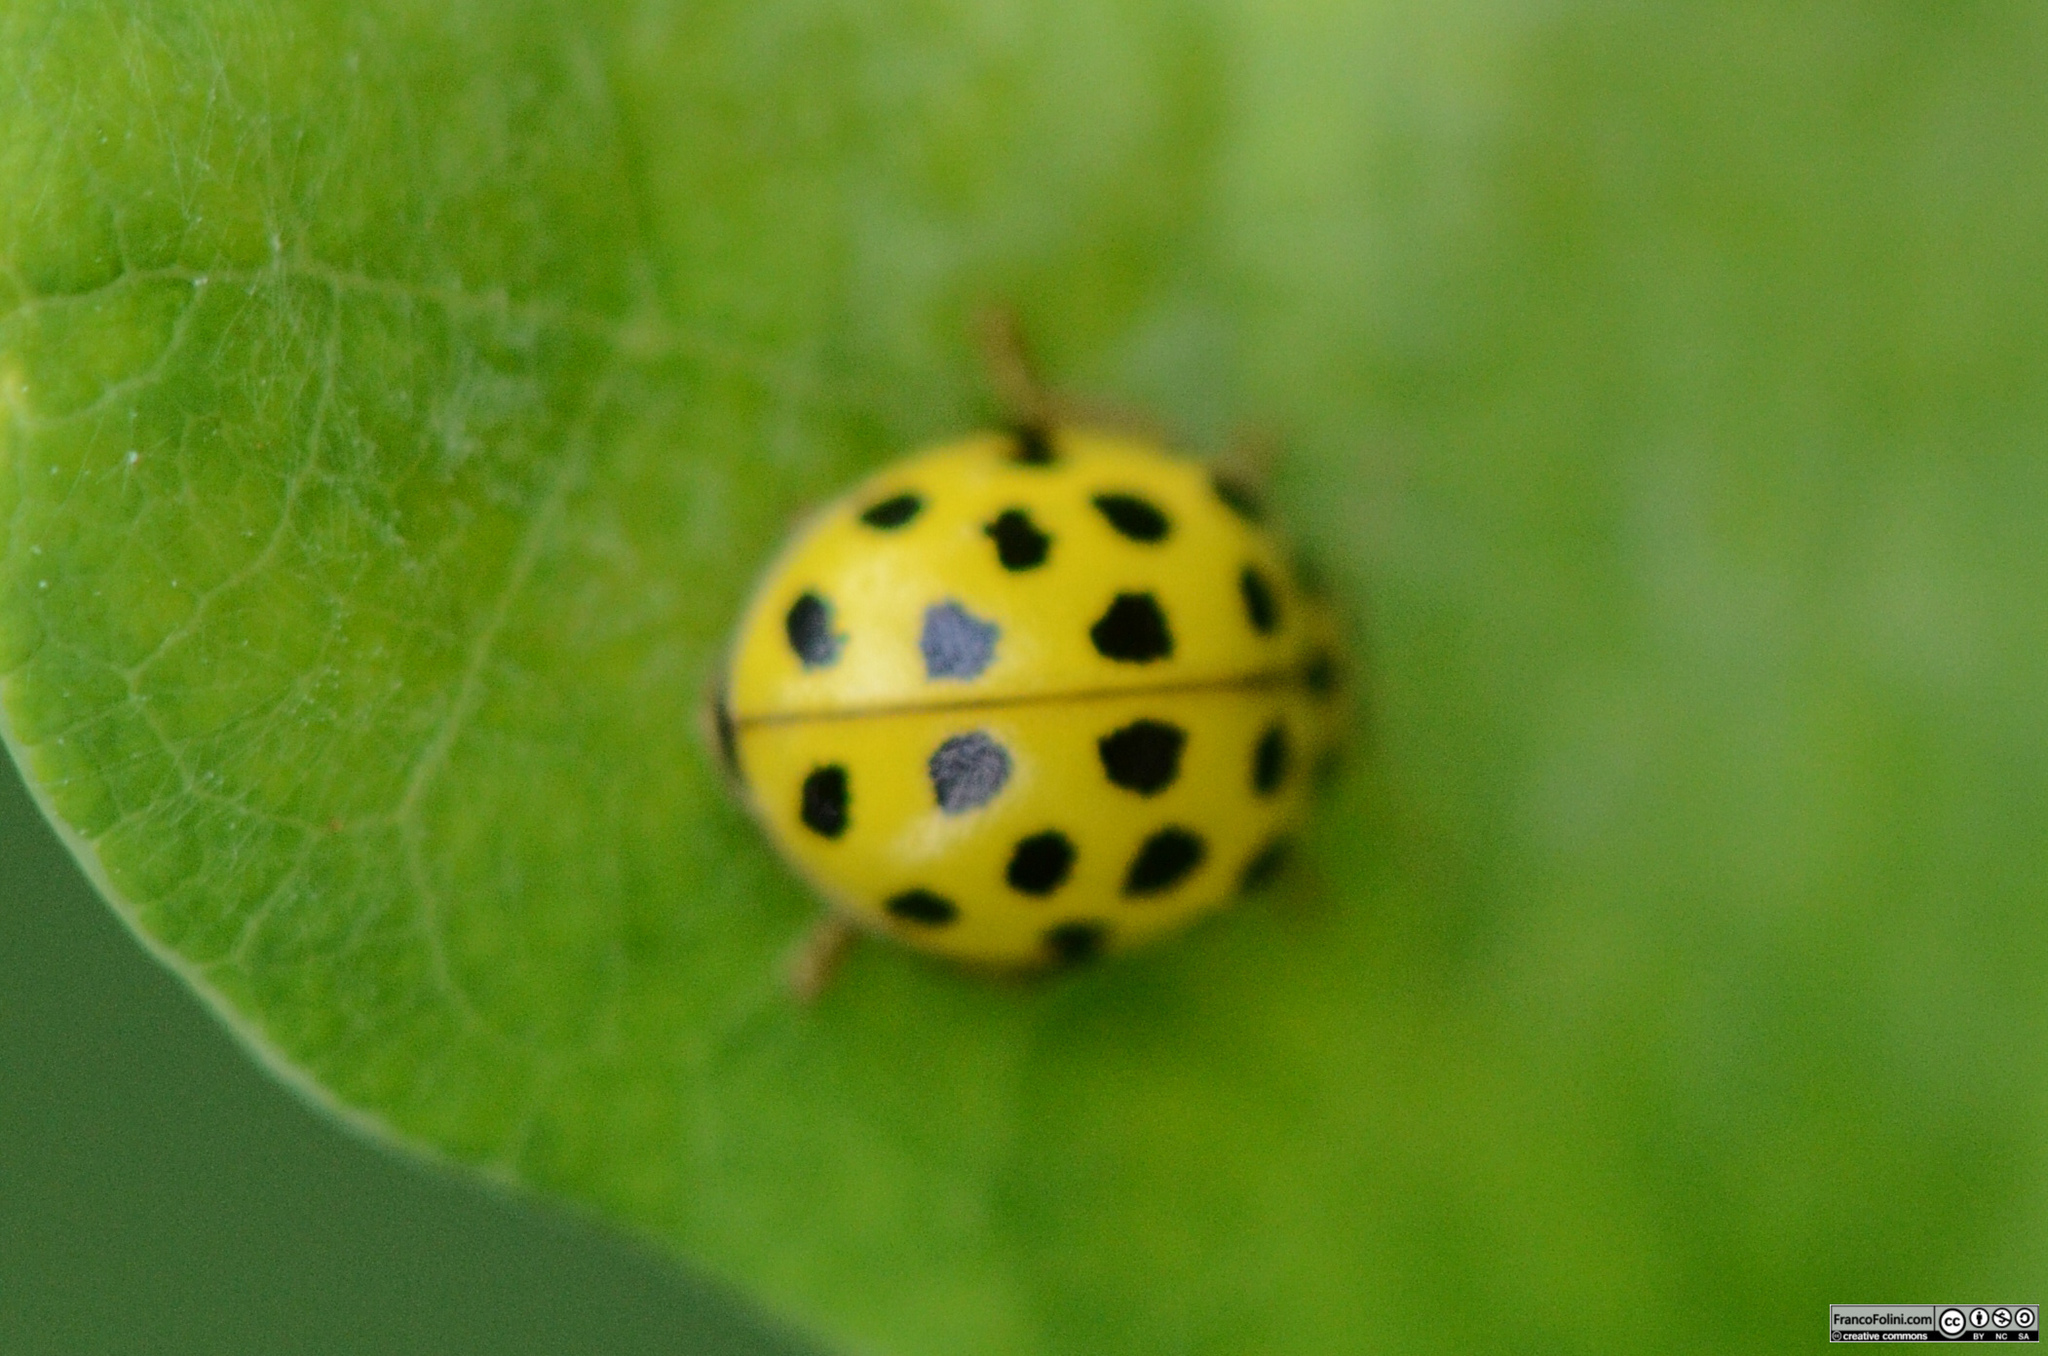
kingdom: Animalia
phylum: Arthropoda
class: Insecta
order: Coleoptera
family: Coccinellidae
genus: Psyllobora
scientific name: Psyllobora vigintiduopunctata
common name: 22-spot ladybird
